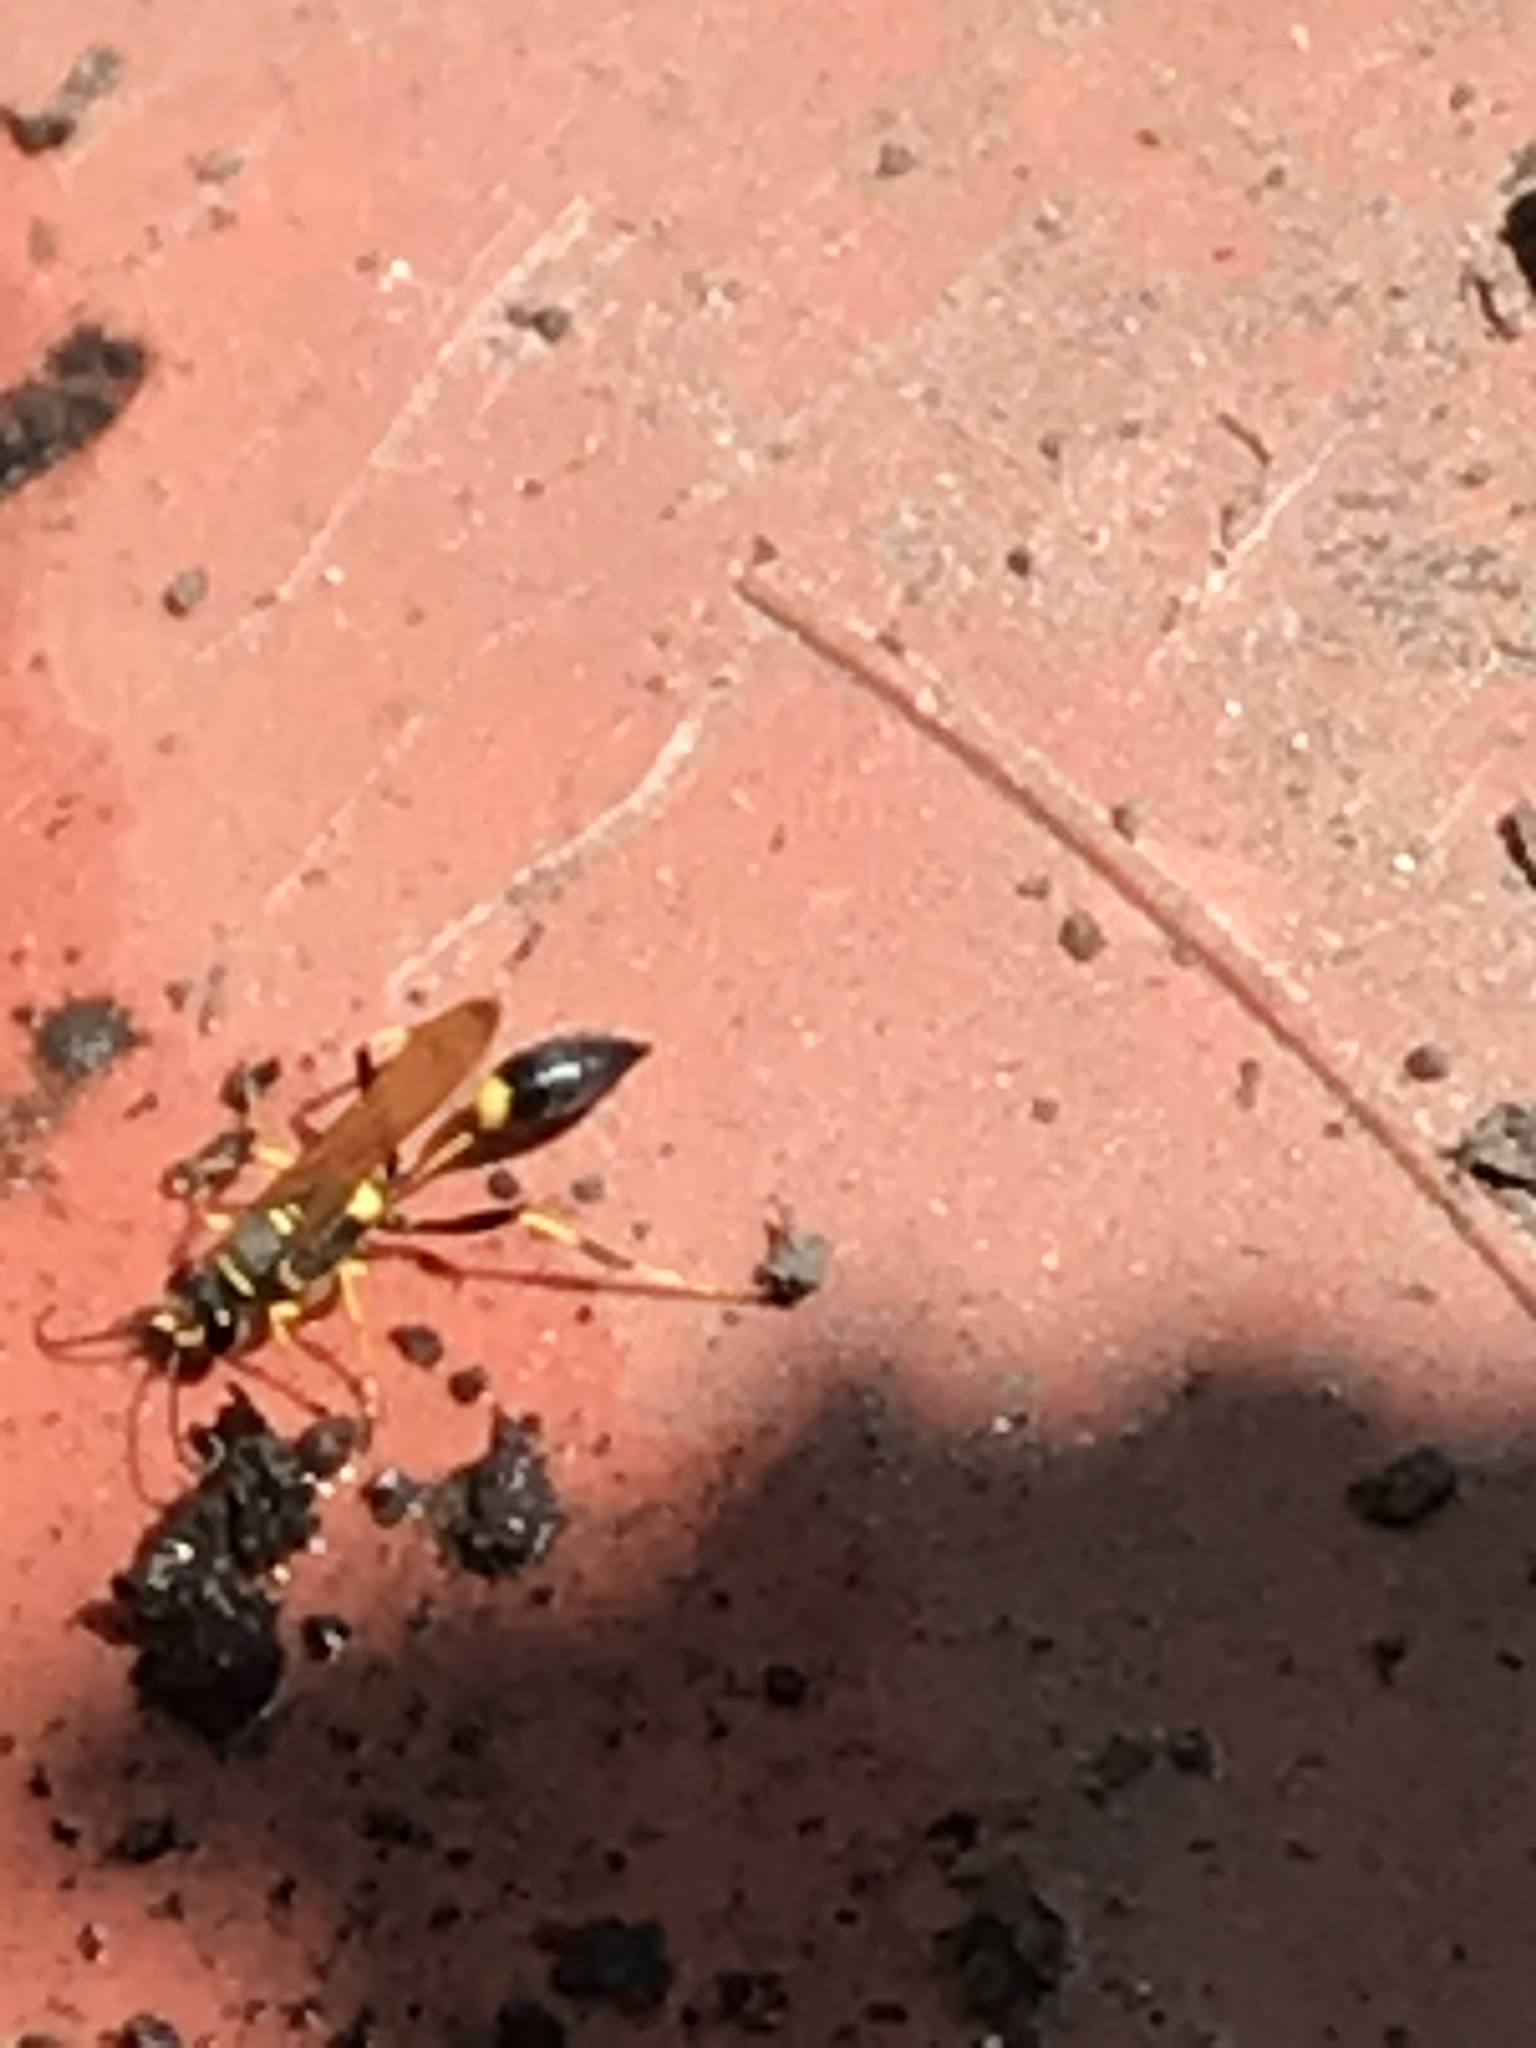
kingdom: Animalia
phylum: Arthropoda
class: Insecta
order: Hymenoptera
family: Sphecidae
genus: Sceliphron
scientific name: Sceliphron caementarium
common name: Mud dauber
